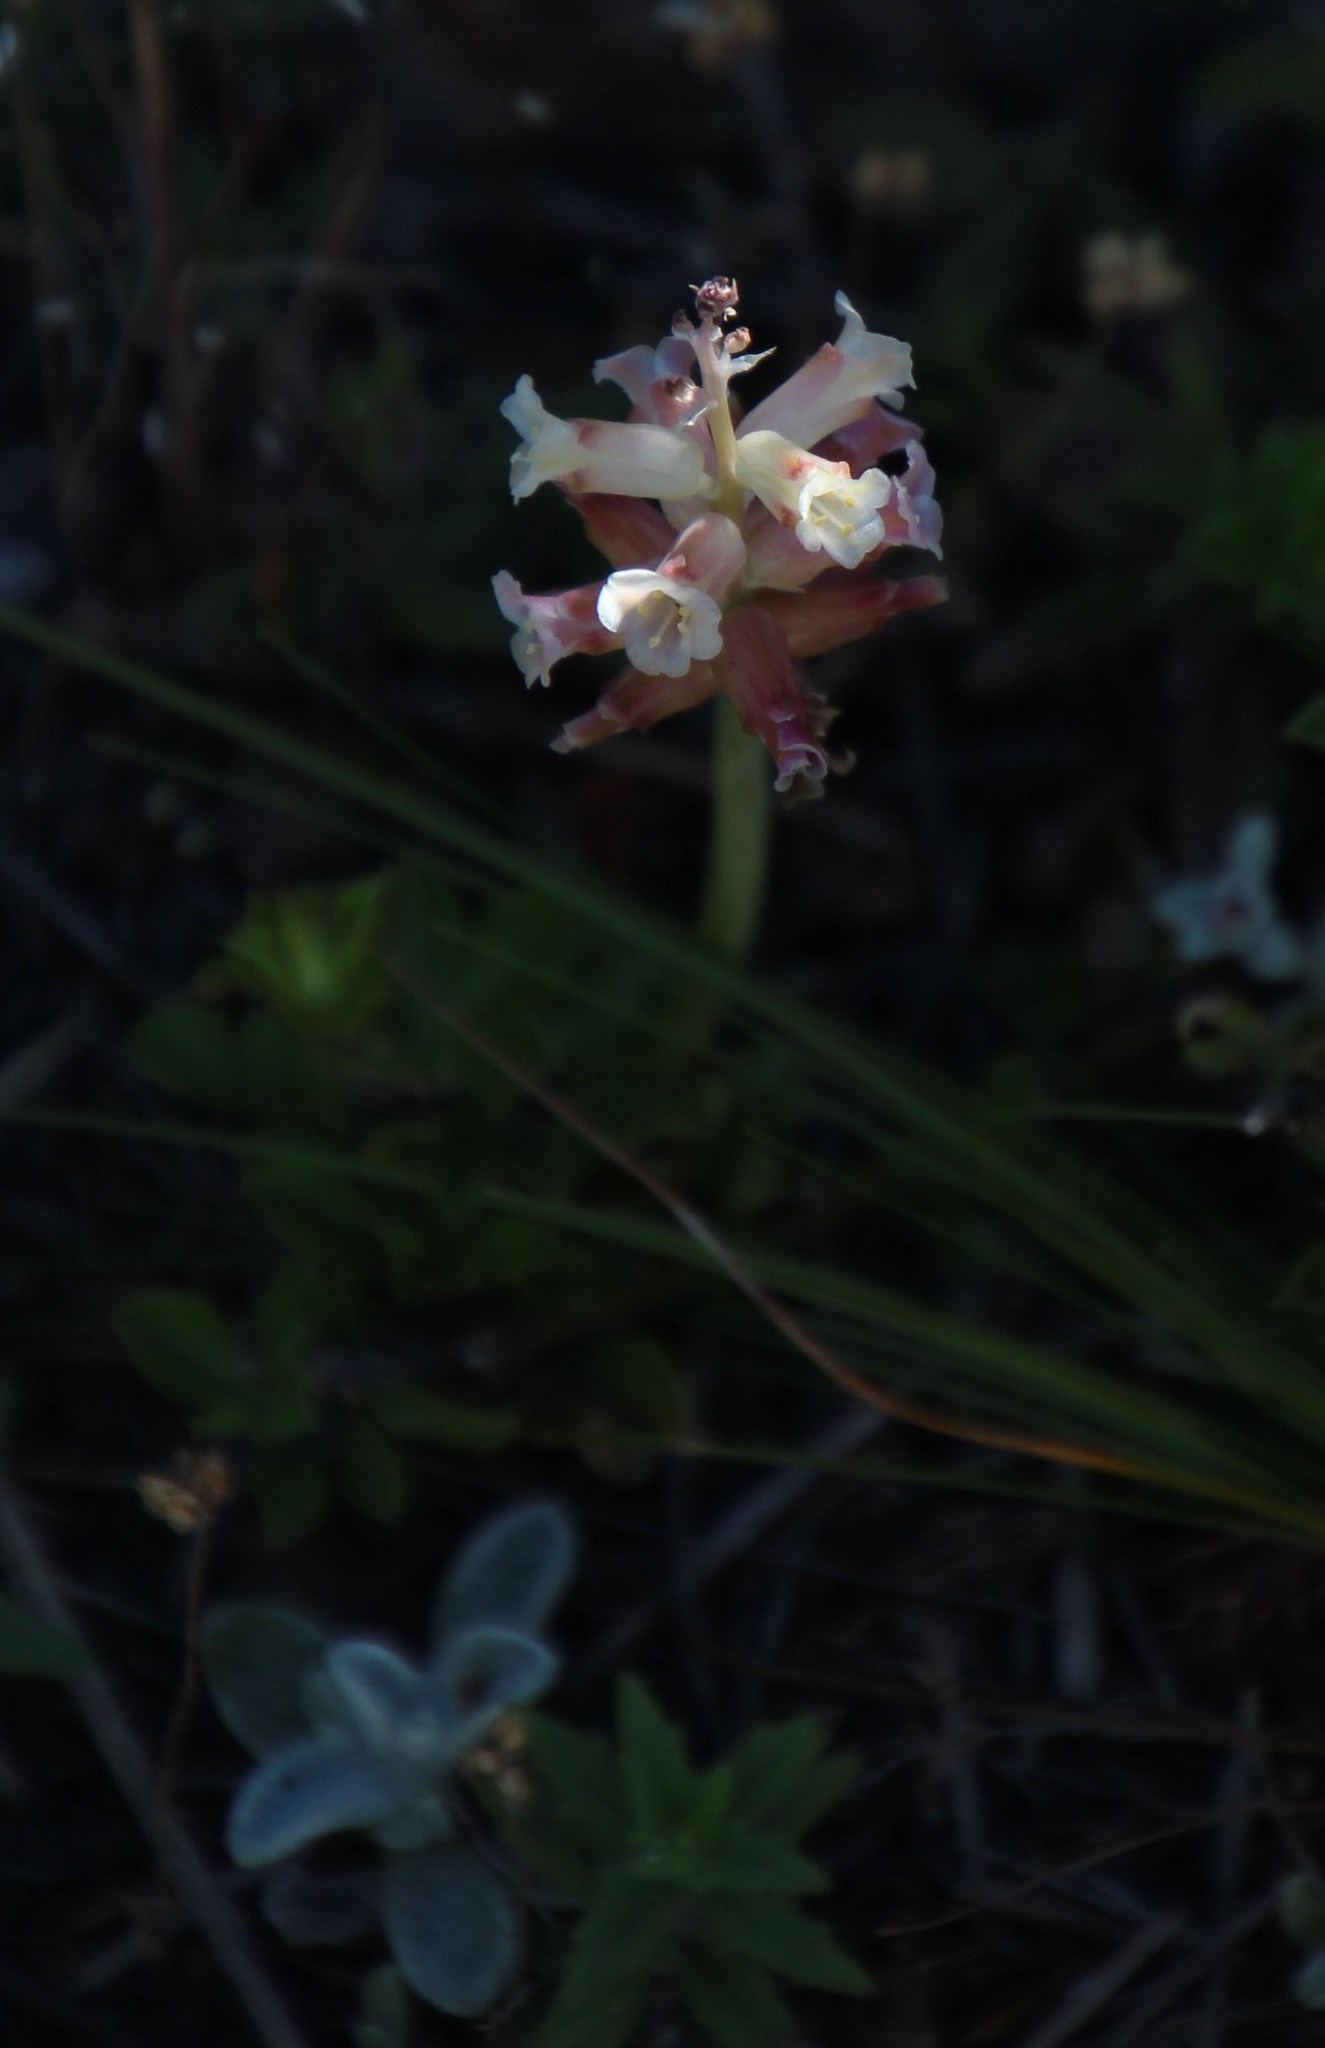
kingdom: Plantae
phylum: Tracheophyta
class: Liliopsida
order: Asparagales
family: Asparagaceae
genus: Lachenalia
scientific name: Lachenalia fistulosa
